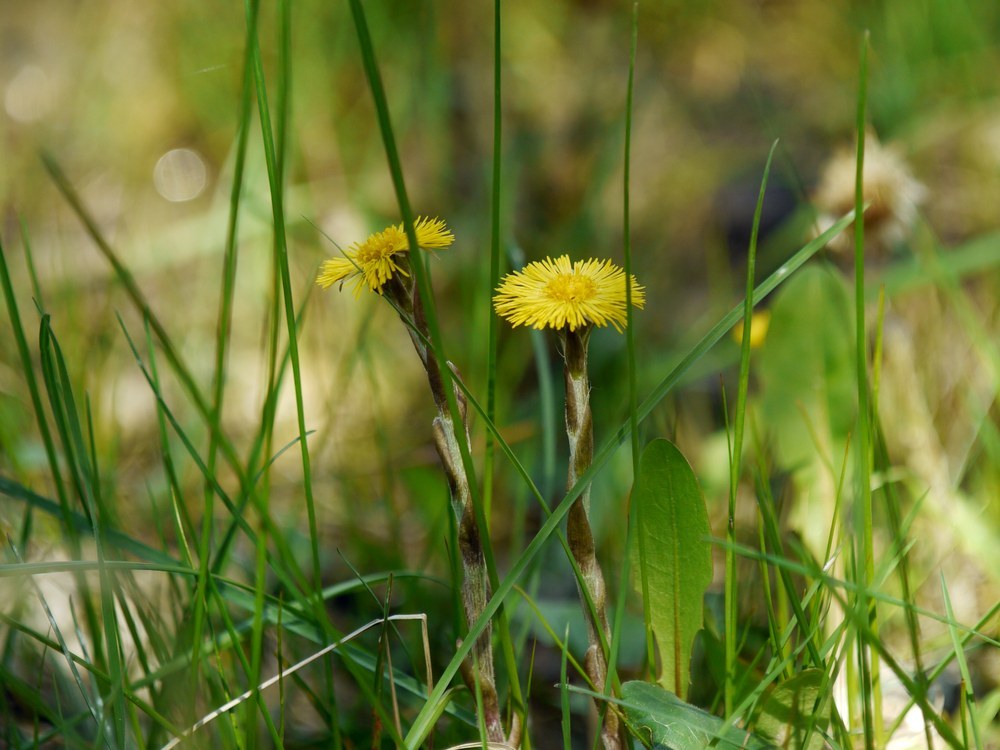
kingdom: Plantae
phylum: Tracheophyta
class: Magnoliopsida
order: Asterales
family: Asteraceae
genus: Tussilago
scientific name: Tussilago farfara
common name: Coltsfoot
